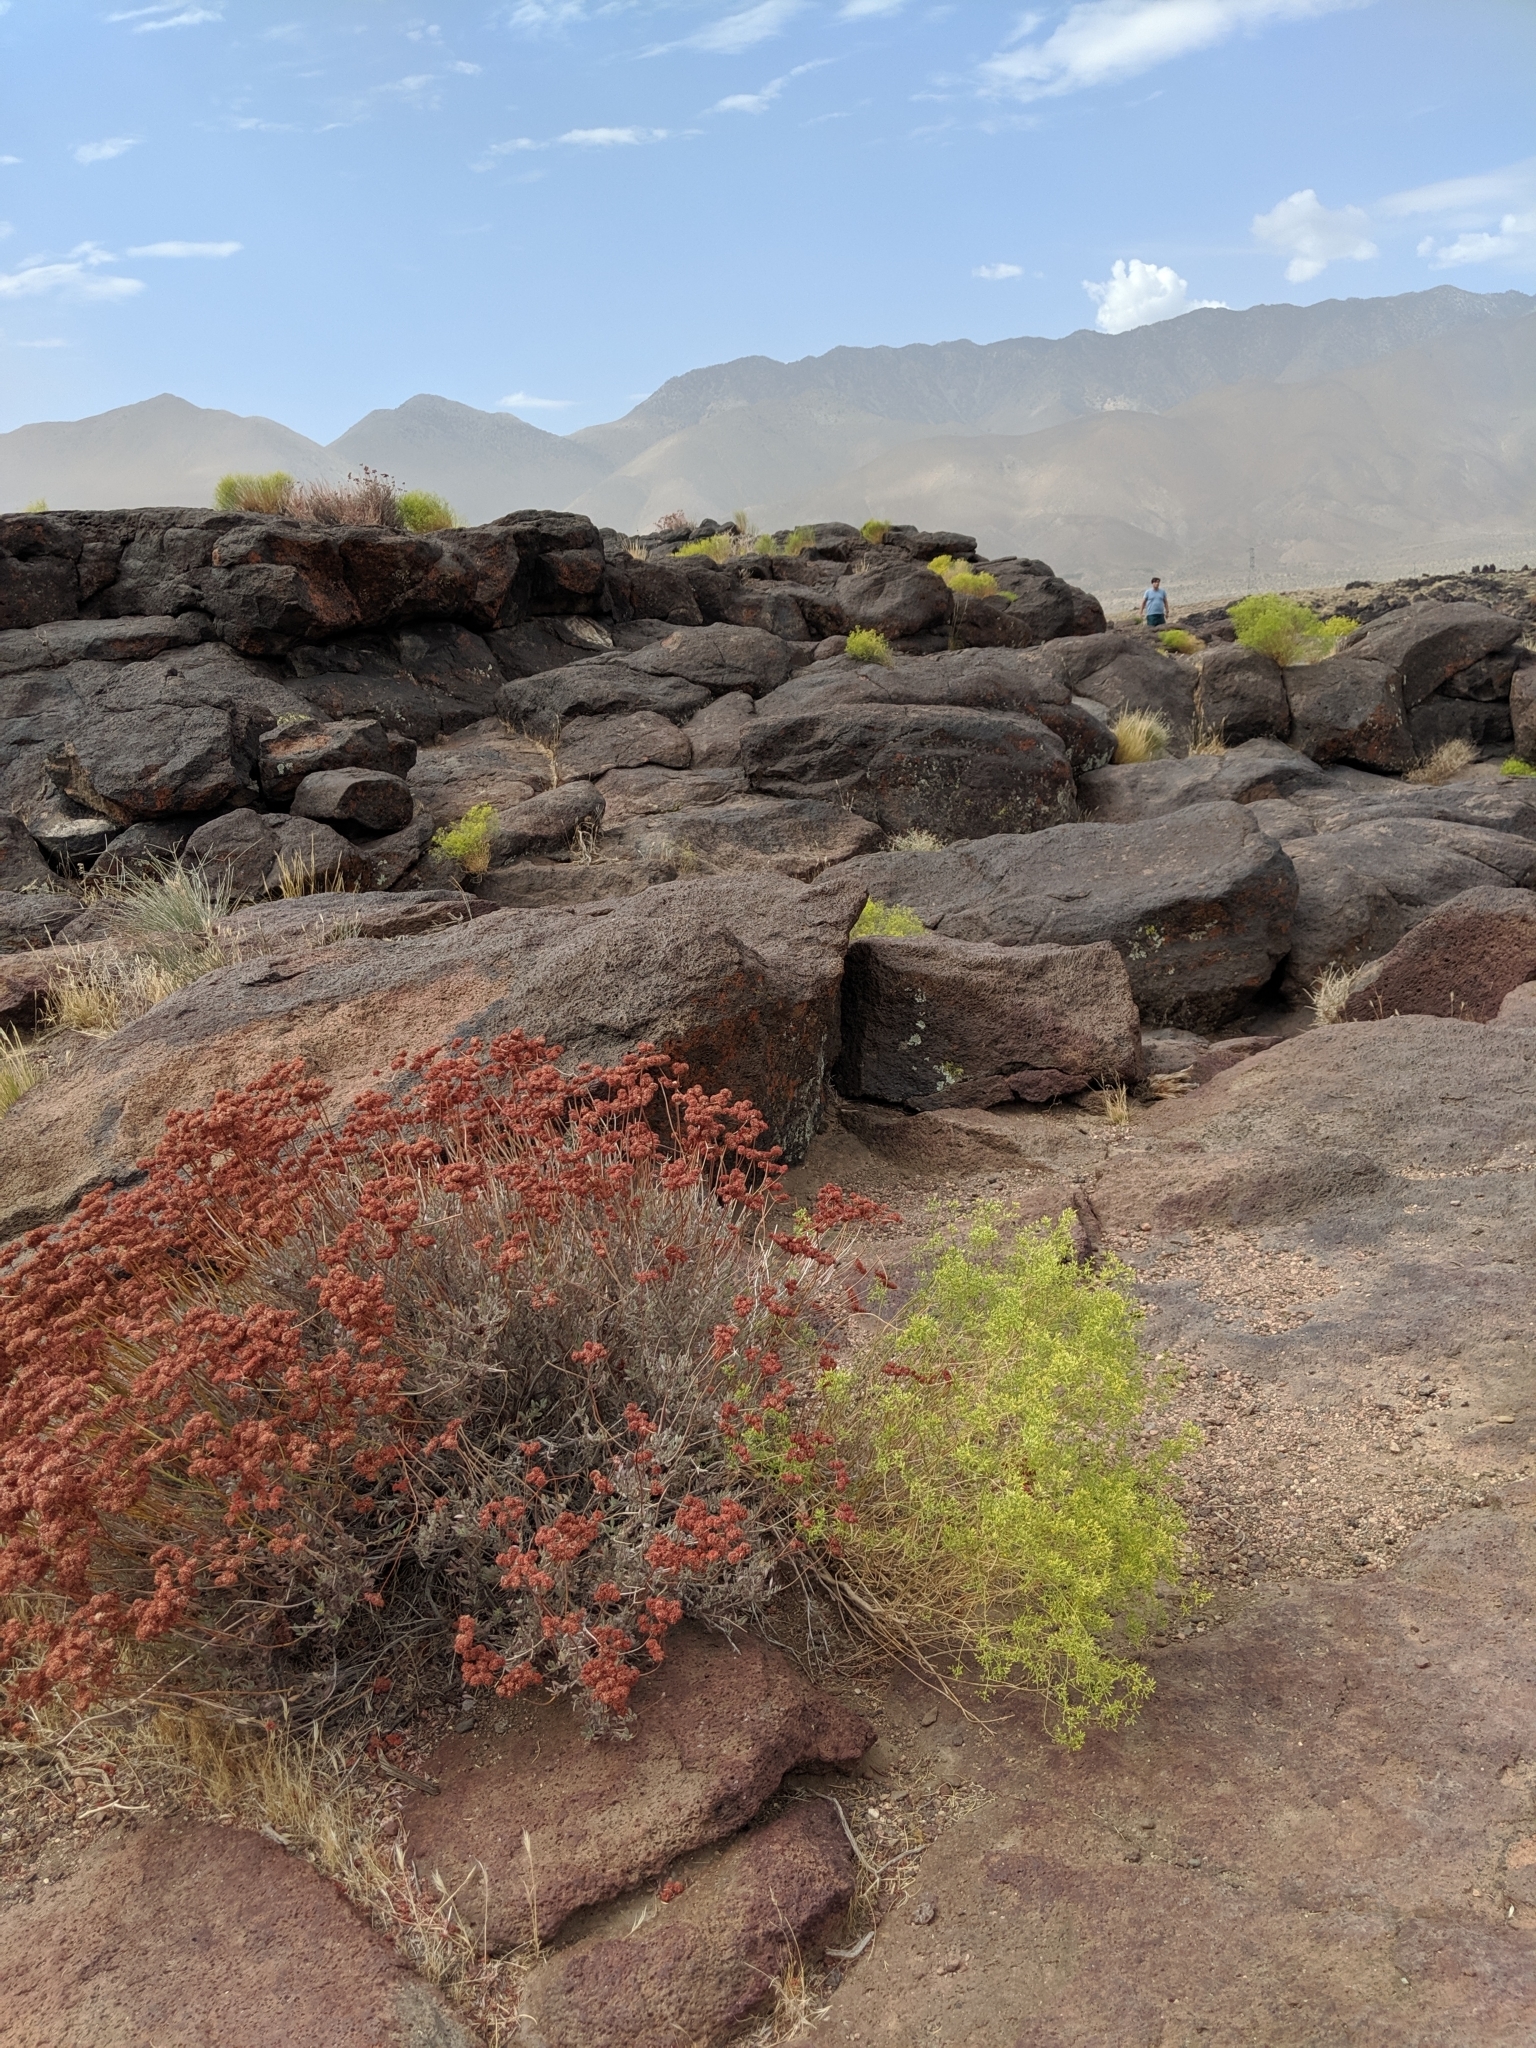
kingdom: Plantae
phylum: Tracheophyta
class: Magnoliopsida
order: Caryophyllales
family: Polygonaceae
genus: Eriogonum
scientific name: Eriogonum fasciculatum
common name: California wild buckwheat
